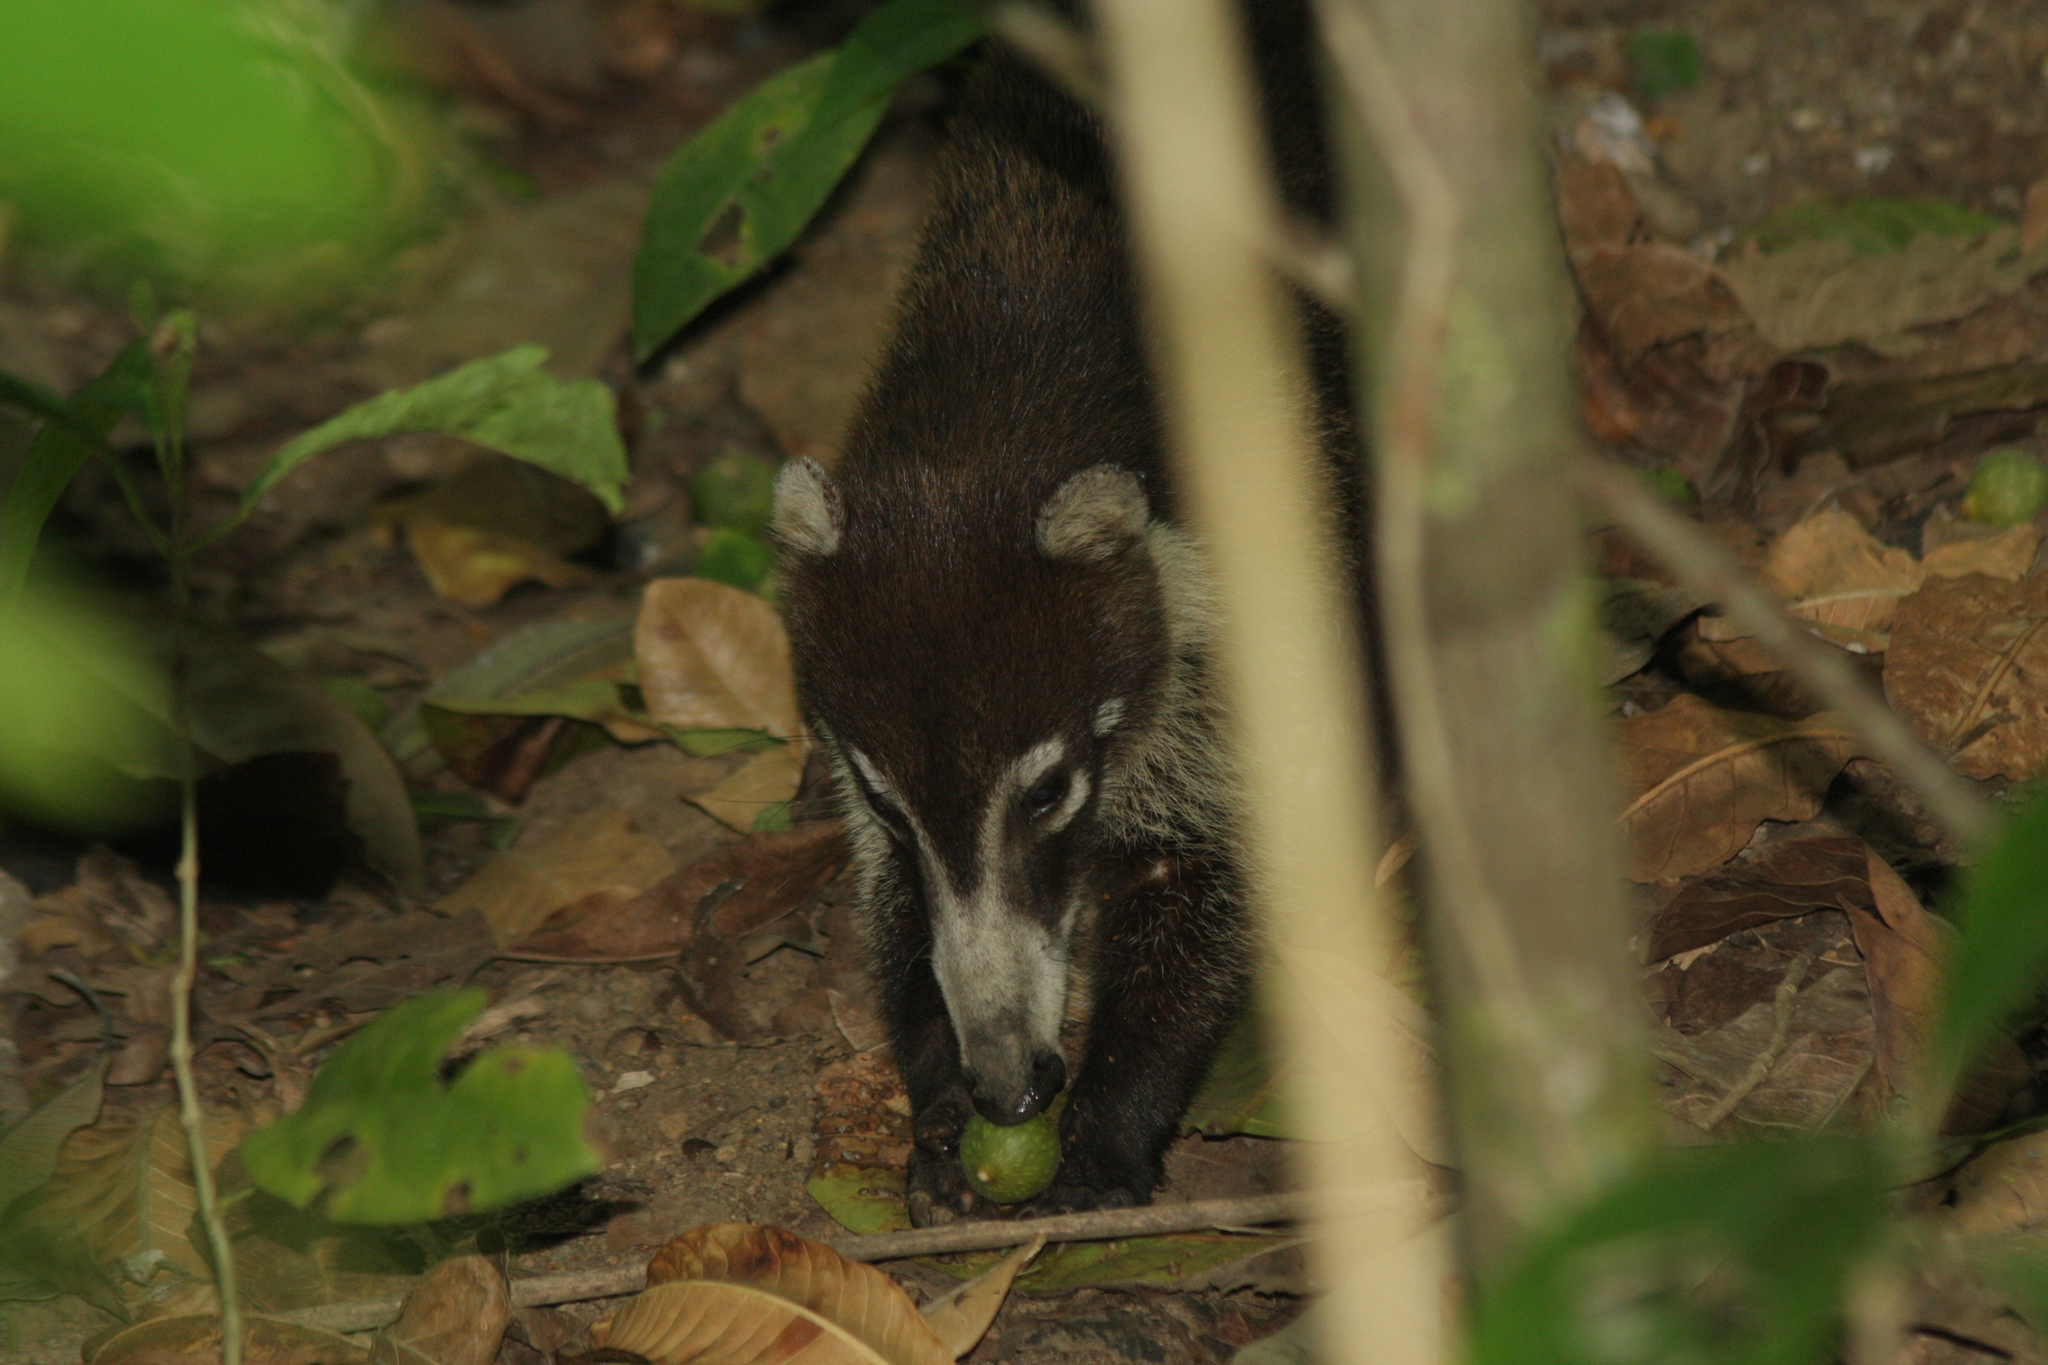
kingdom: Animalia
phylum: Chordata
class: Mammalia
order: Carnivora
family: Procyonidae
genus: Nasua
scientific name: Nasua narica
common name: White-nosed coati
